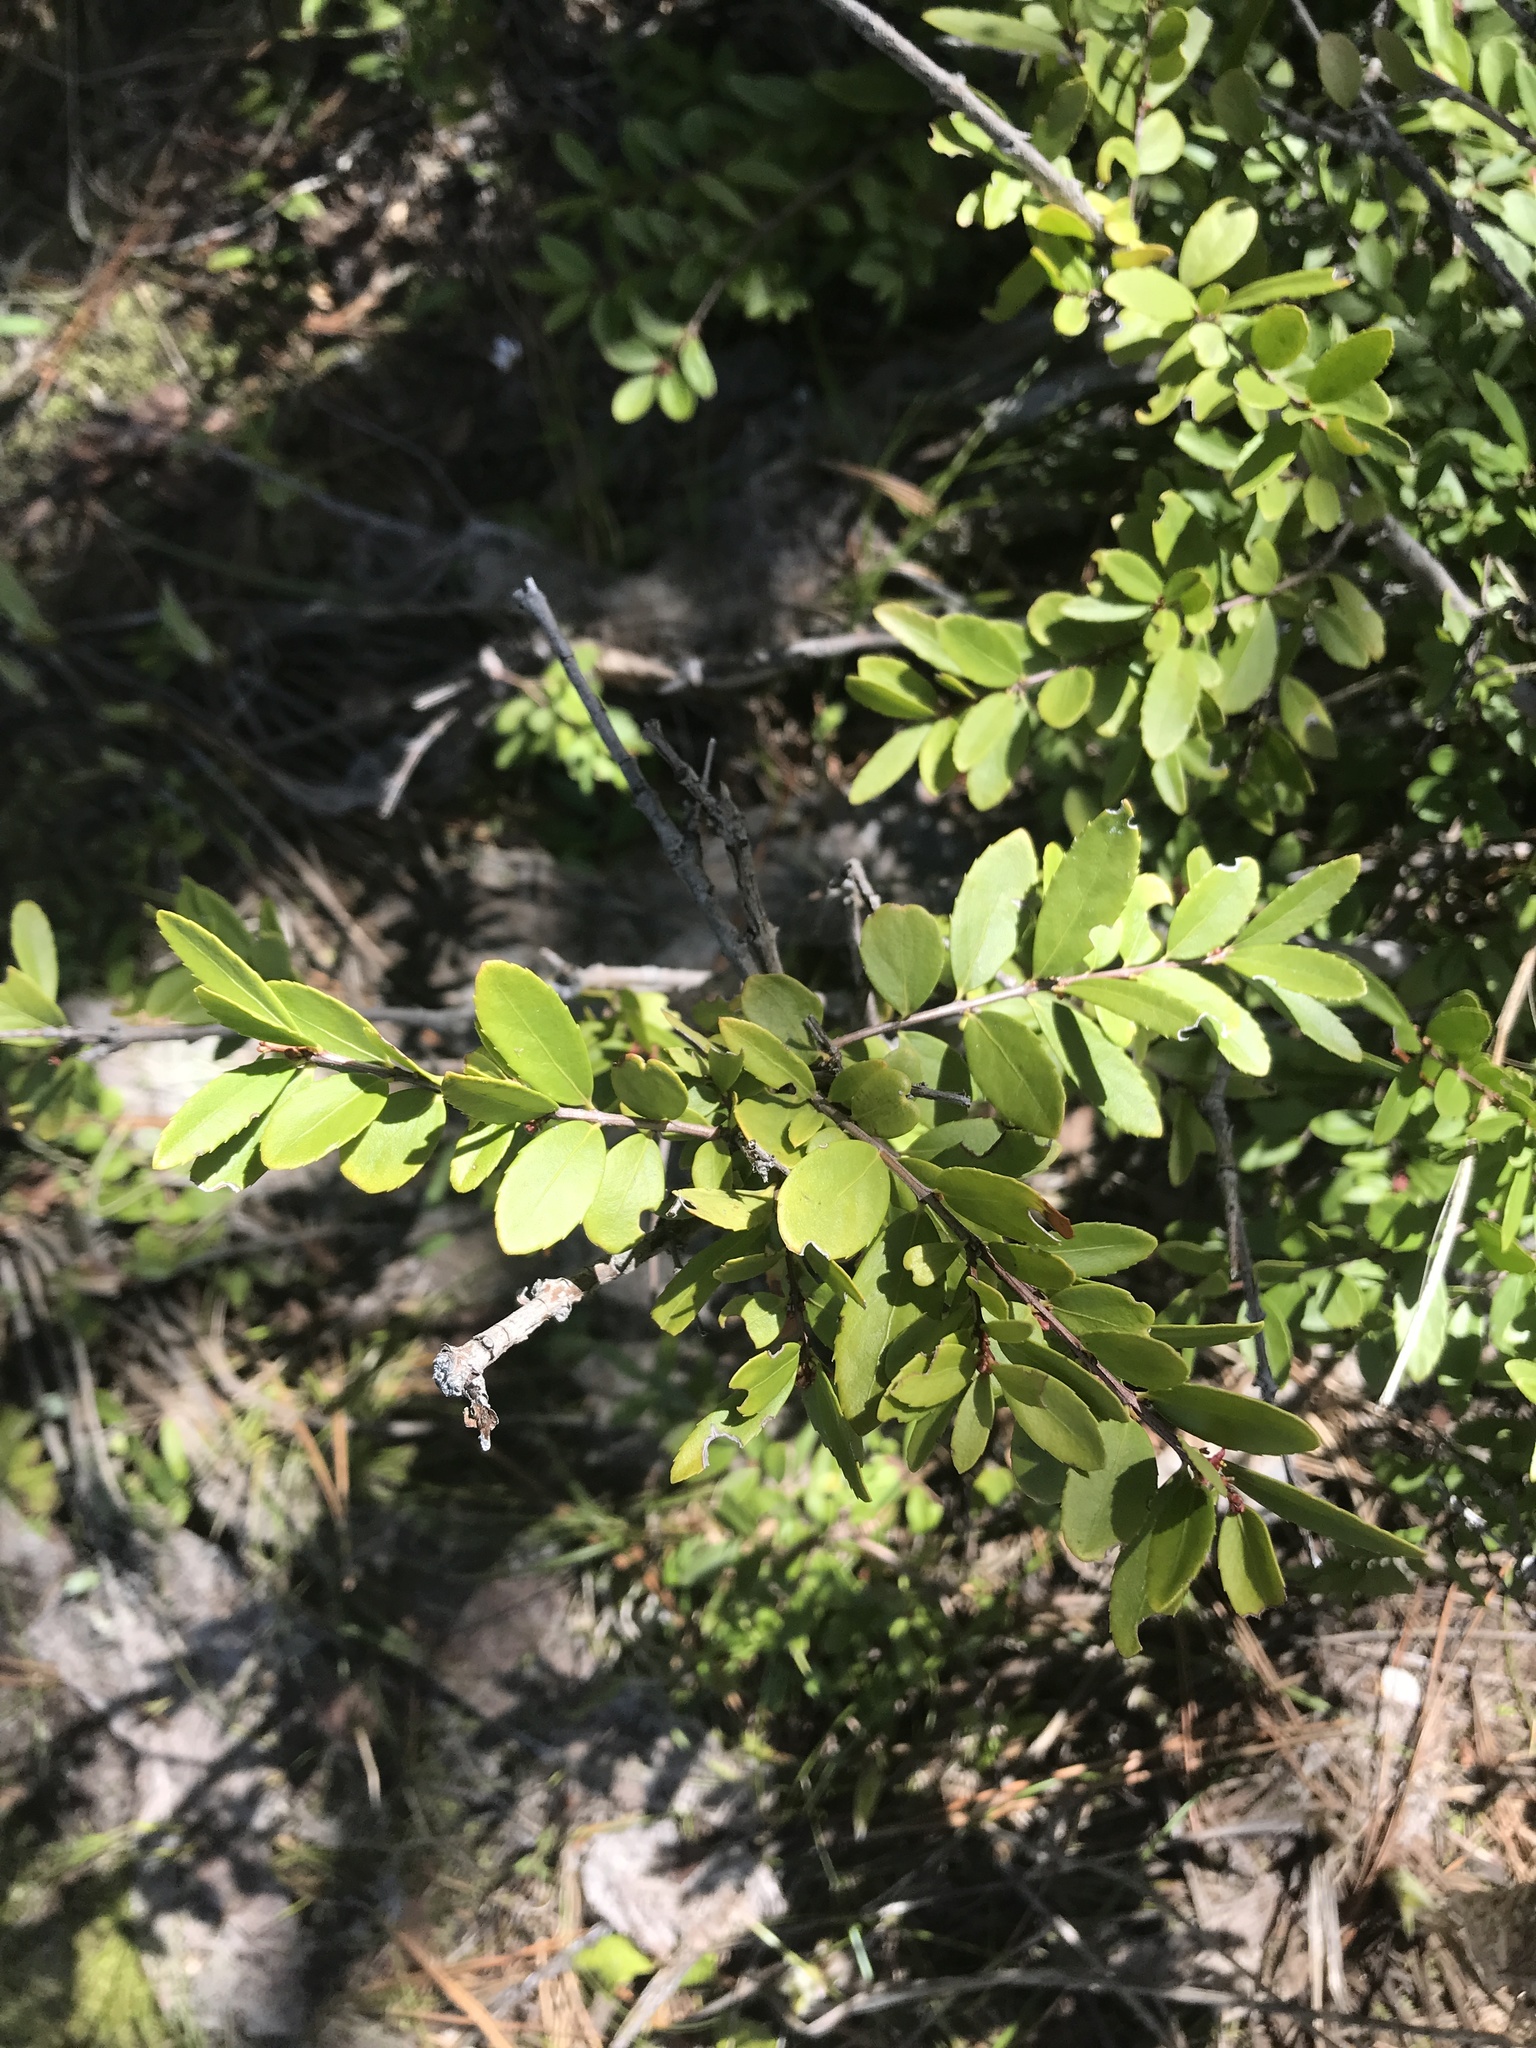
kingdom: Plantae
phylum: Tracheophyta
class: Magnoliopsida
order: Celastrales
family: Celastraceae
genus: Paxistima
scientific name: Paxistima myrsinites
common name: Mountain-lover
